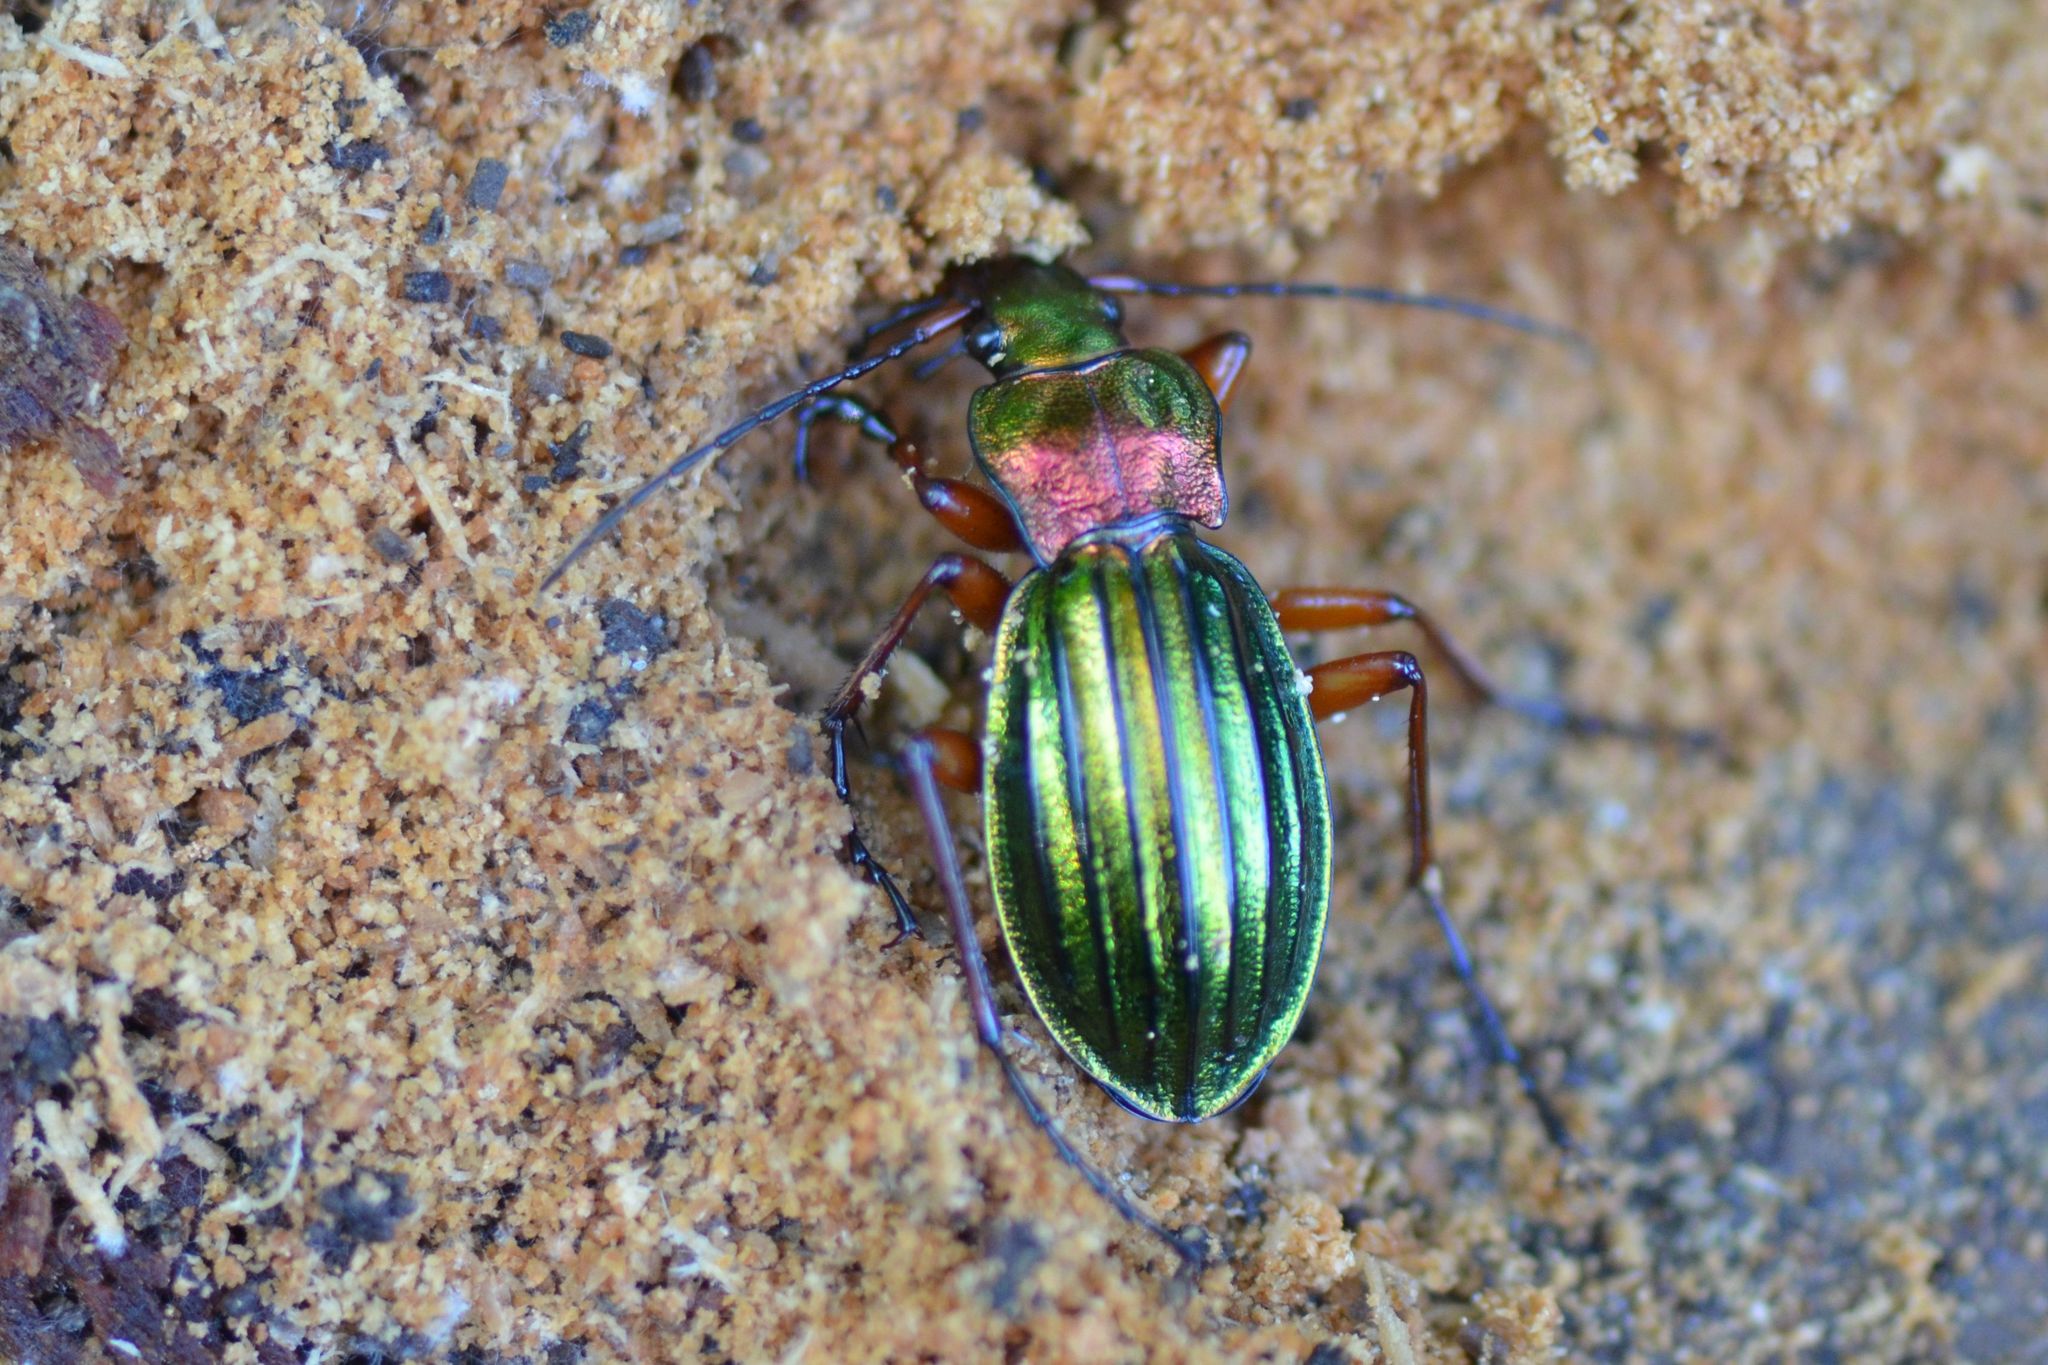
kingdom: Animalia
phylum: Arthropoda
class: Insecta
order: Coleoptera
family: Carabidae
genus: Carabus
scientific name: Carabus auronitens
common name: Carabus auronitens
